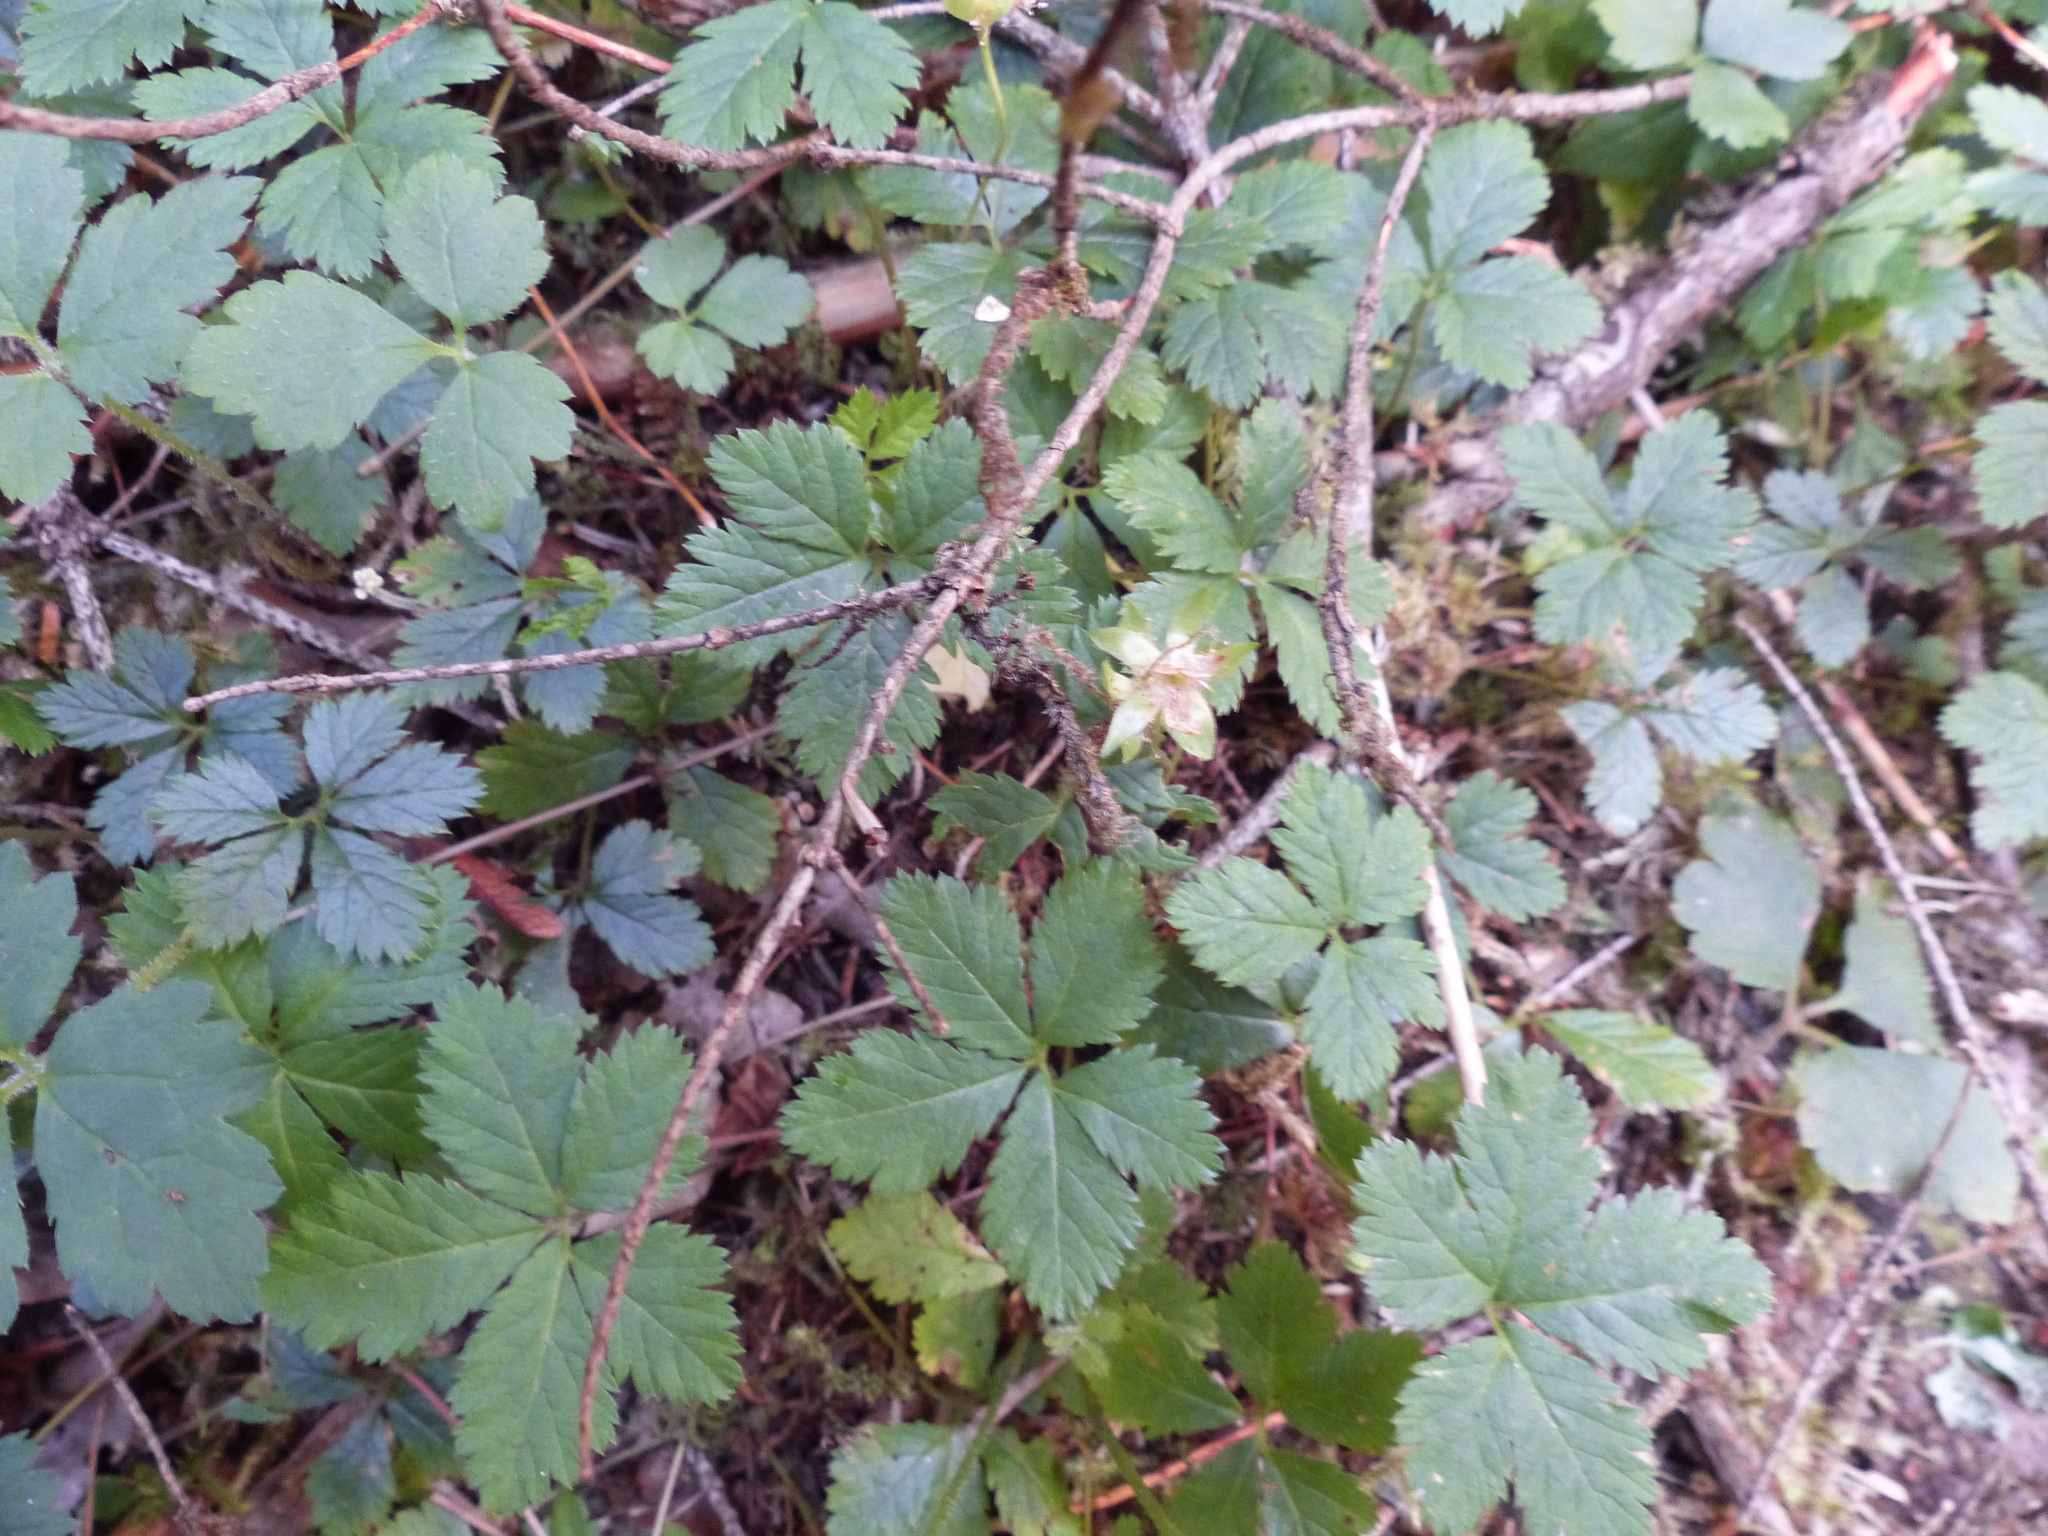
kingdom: Plantae
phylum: Tracheophyta
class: Magnoliopsida
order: Rosales
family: Rosaceae
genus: Rubus
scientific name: Rubus pedatus
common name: Creeping raspberry
